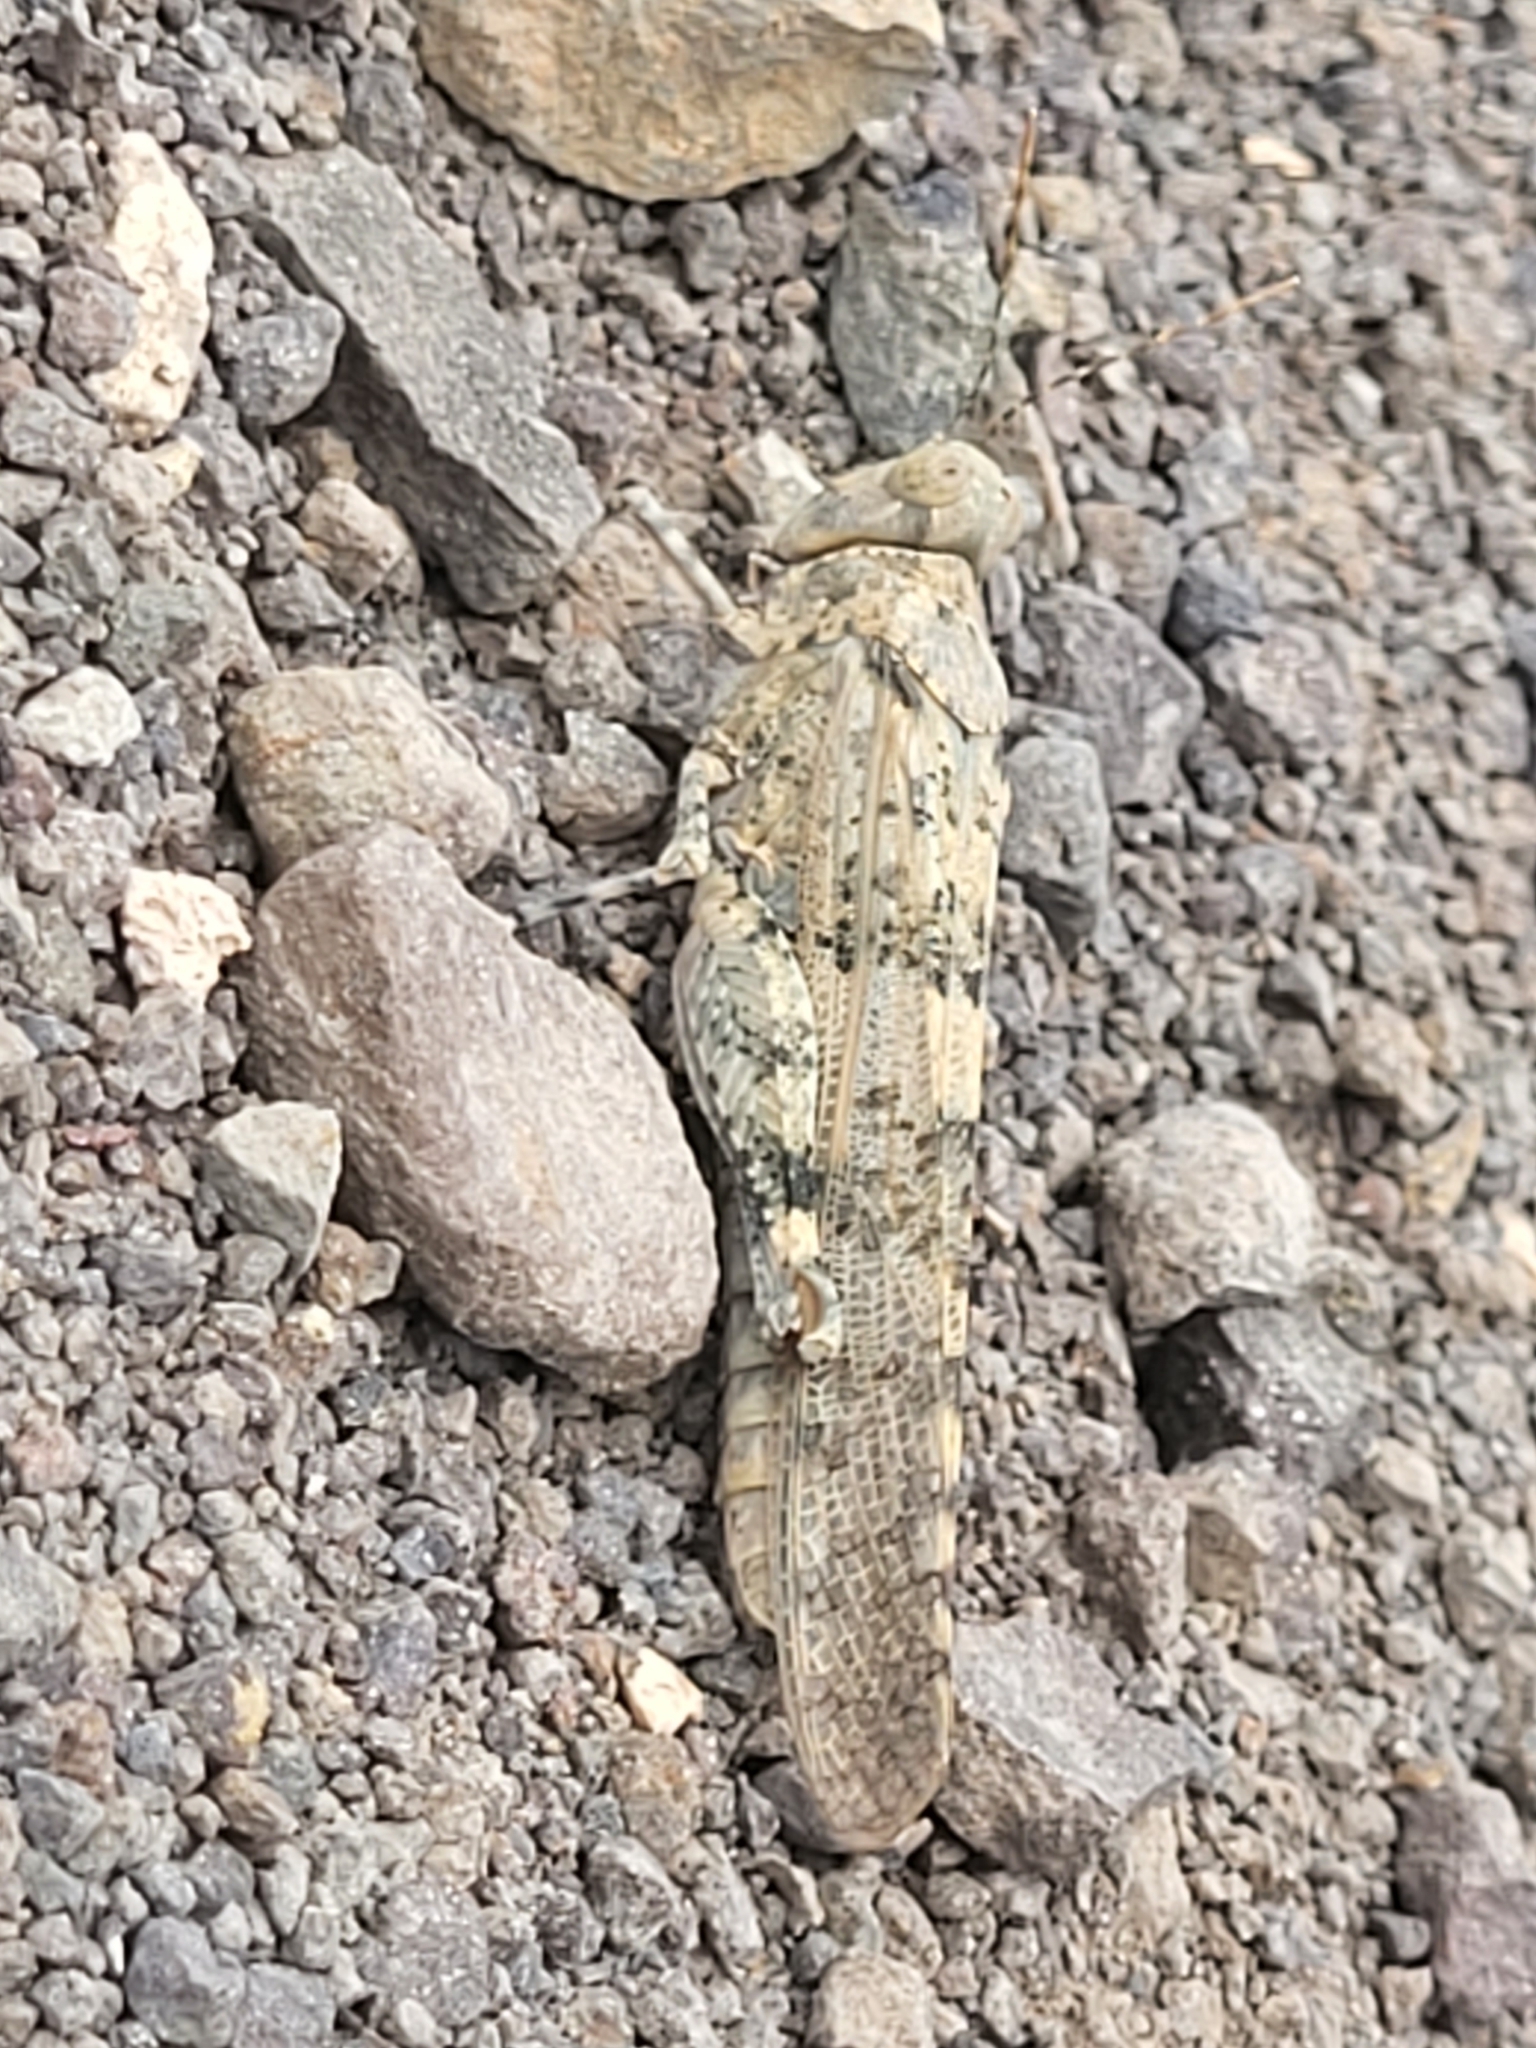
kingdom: Animalia
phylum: Arthropoda
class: Insecta
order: Orthoptera
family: Acrididae
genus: Sphingonotus
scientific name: Sphingonotus rubescens
